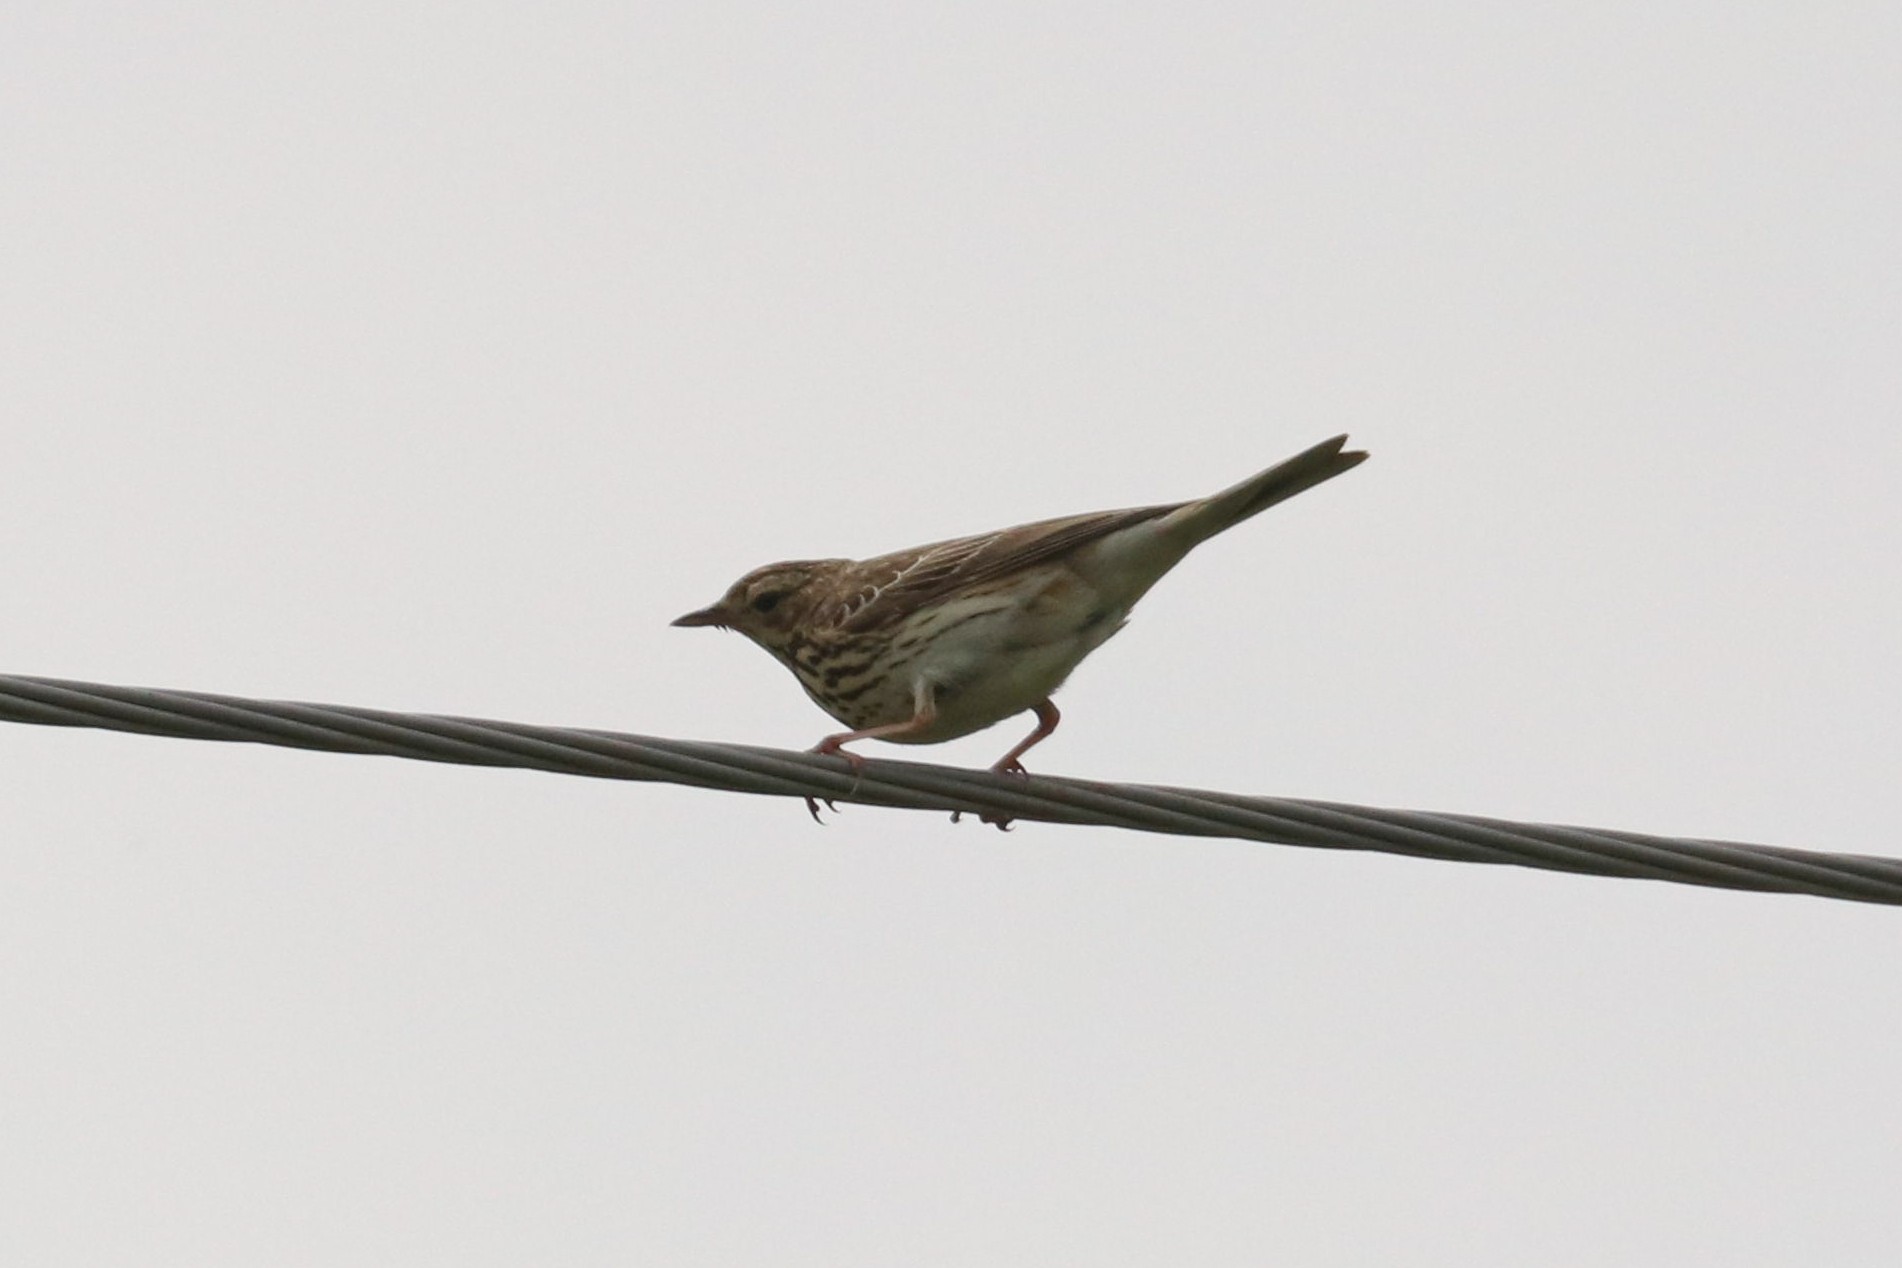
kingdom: Animalia
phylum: Chordata
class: Aves
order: Passeriformes
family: Motacillidae
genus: Anthus
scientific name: Anthus trivialis
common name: Tree pipit
